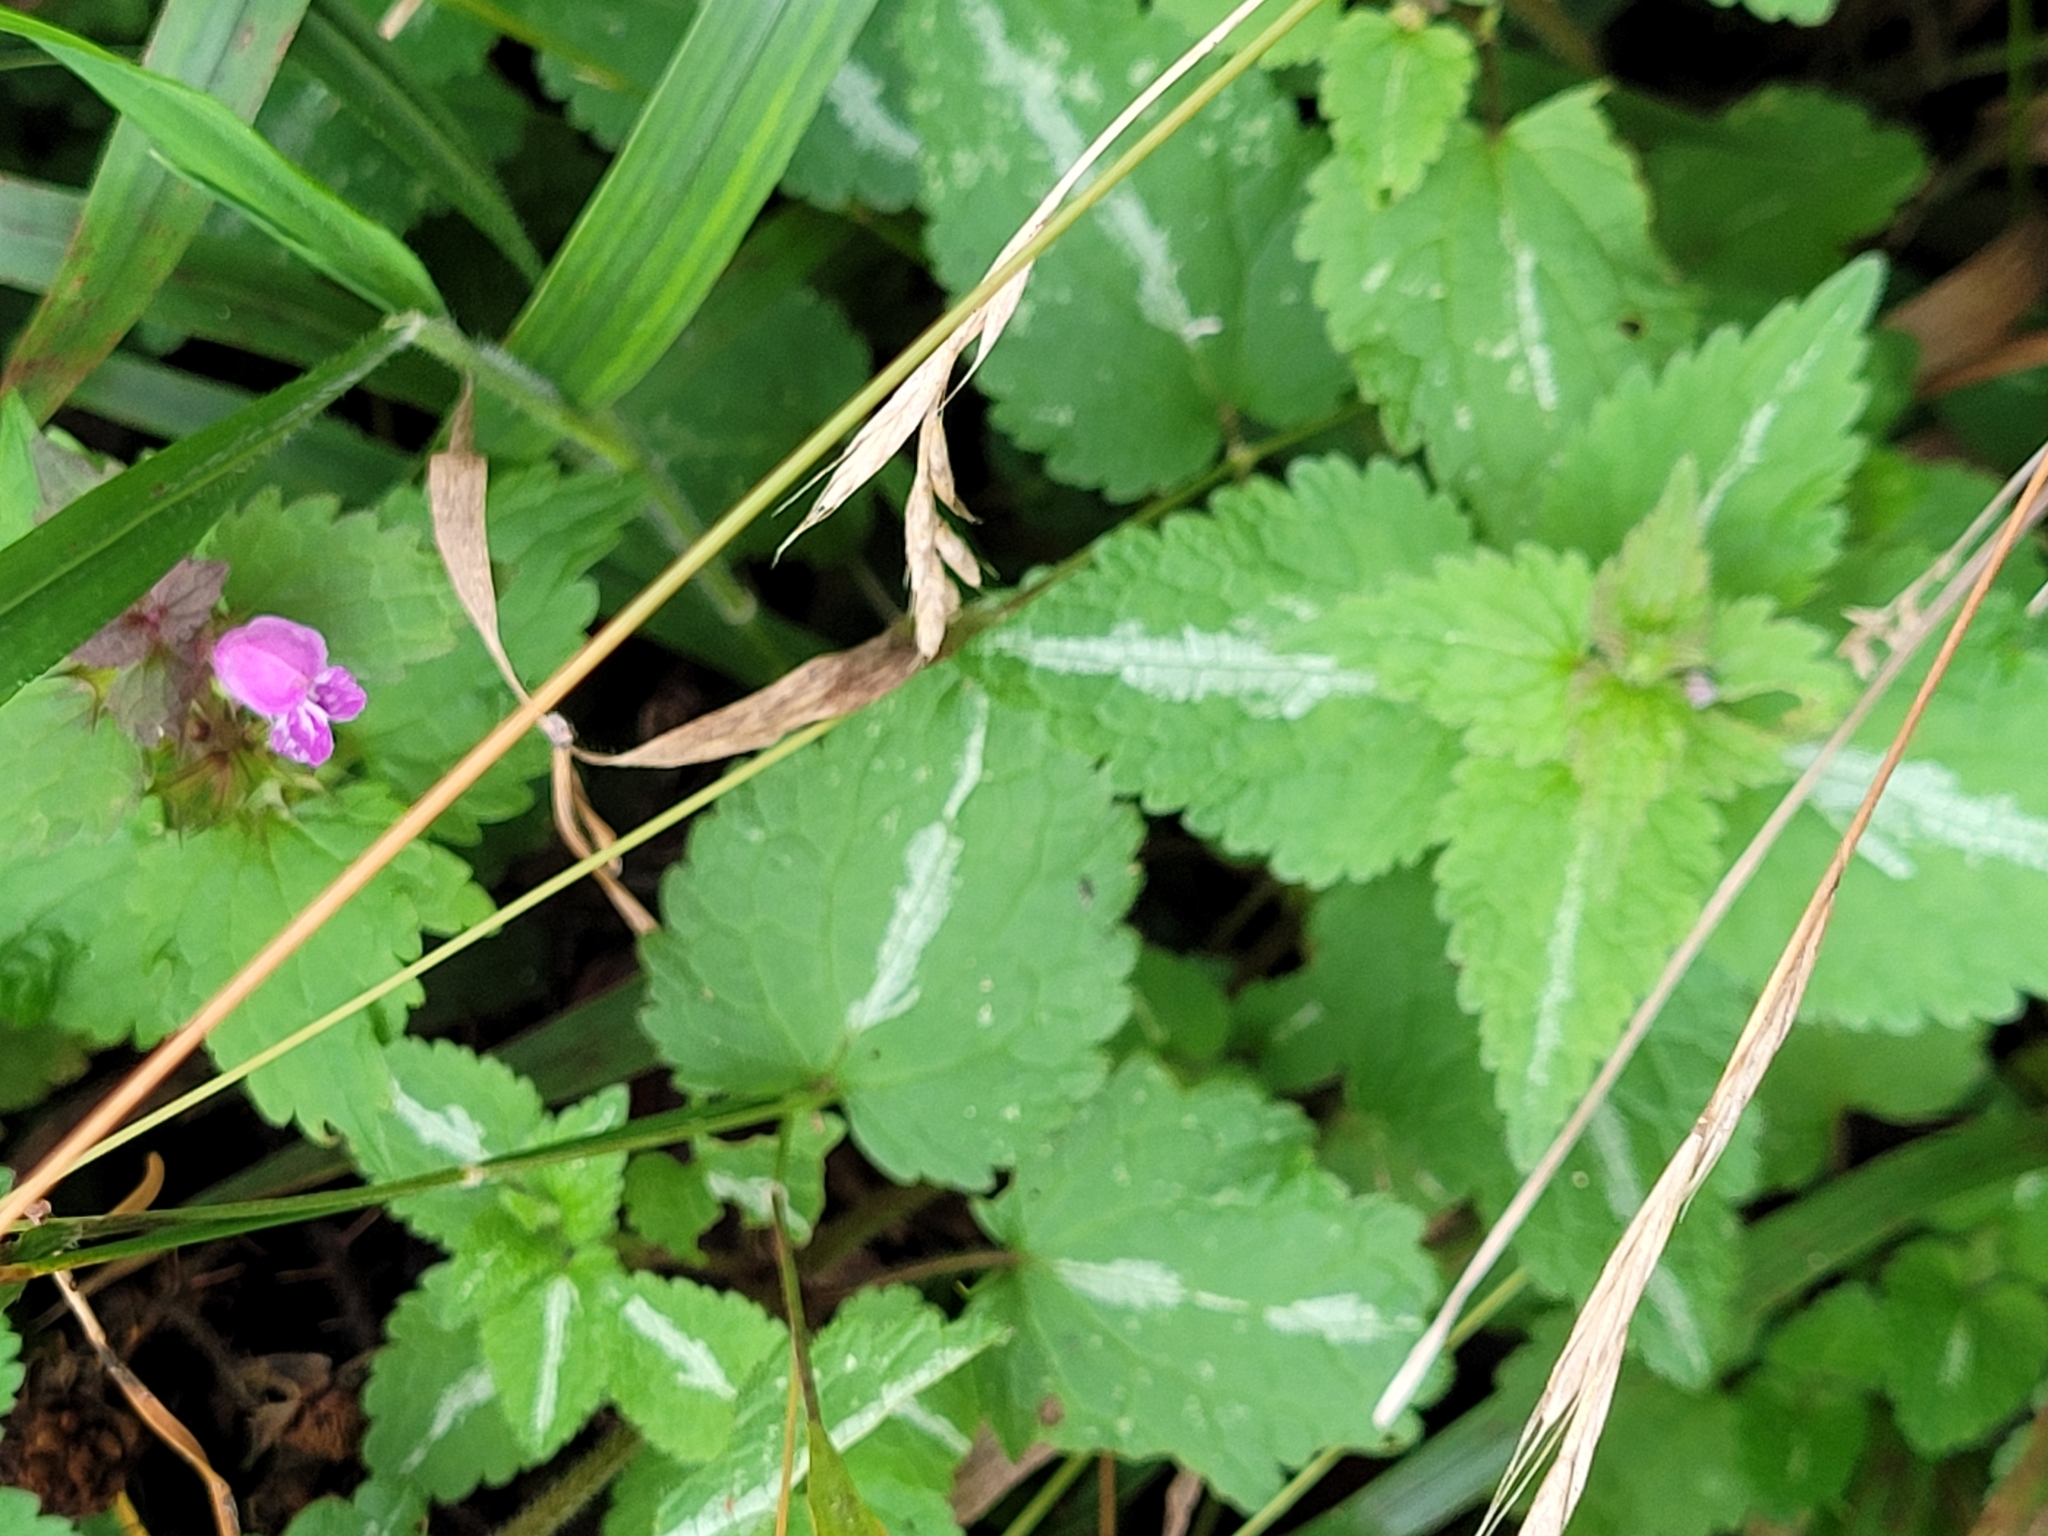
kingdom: Plantae
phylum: Tracheophyta
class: Magnoliopsida
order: Lamiales
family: Lamiaceae
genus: Lamium
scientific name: Lamium maculatum
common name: Spotted dead-nettle
